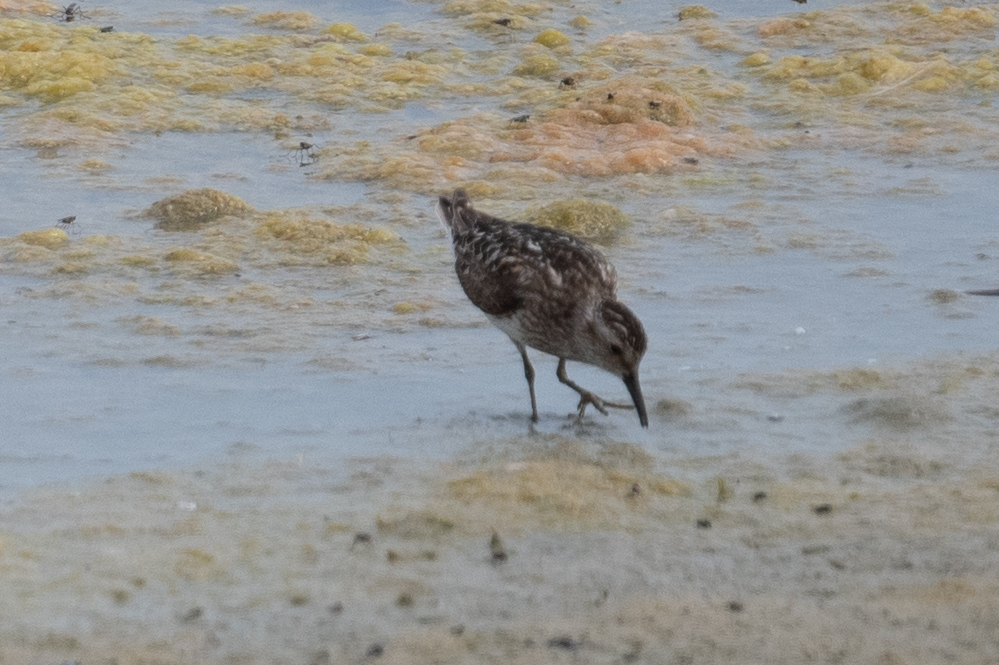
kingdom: Animalia
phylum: Chordata
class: Aves
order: Charadriiformes
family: Scolopacidae
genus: Calidris
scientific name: Calidris minutilla
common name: Least sandpiper
